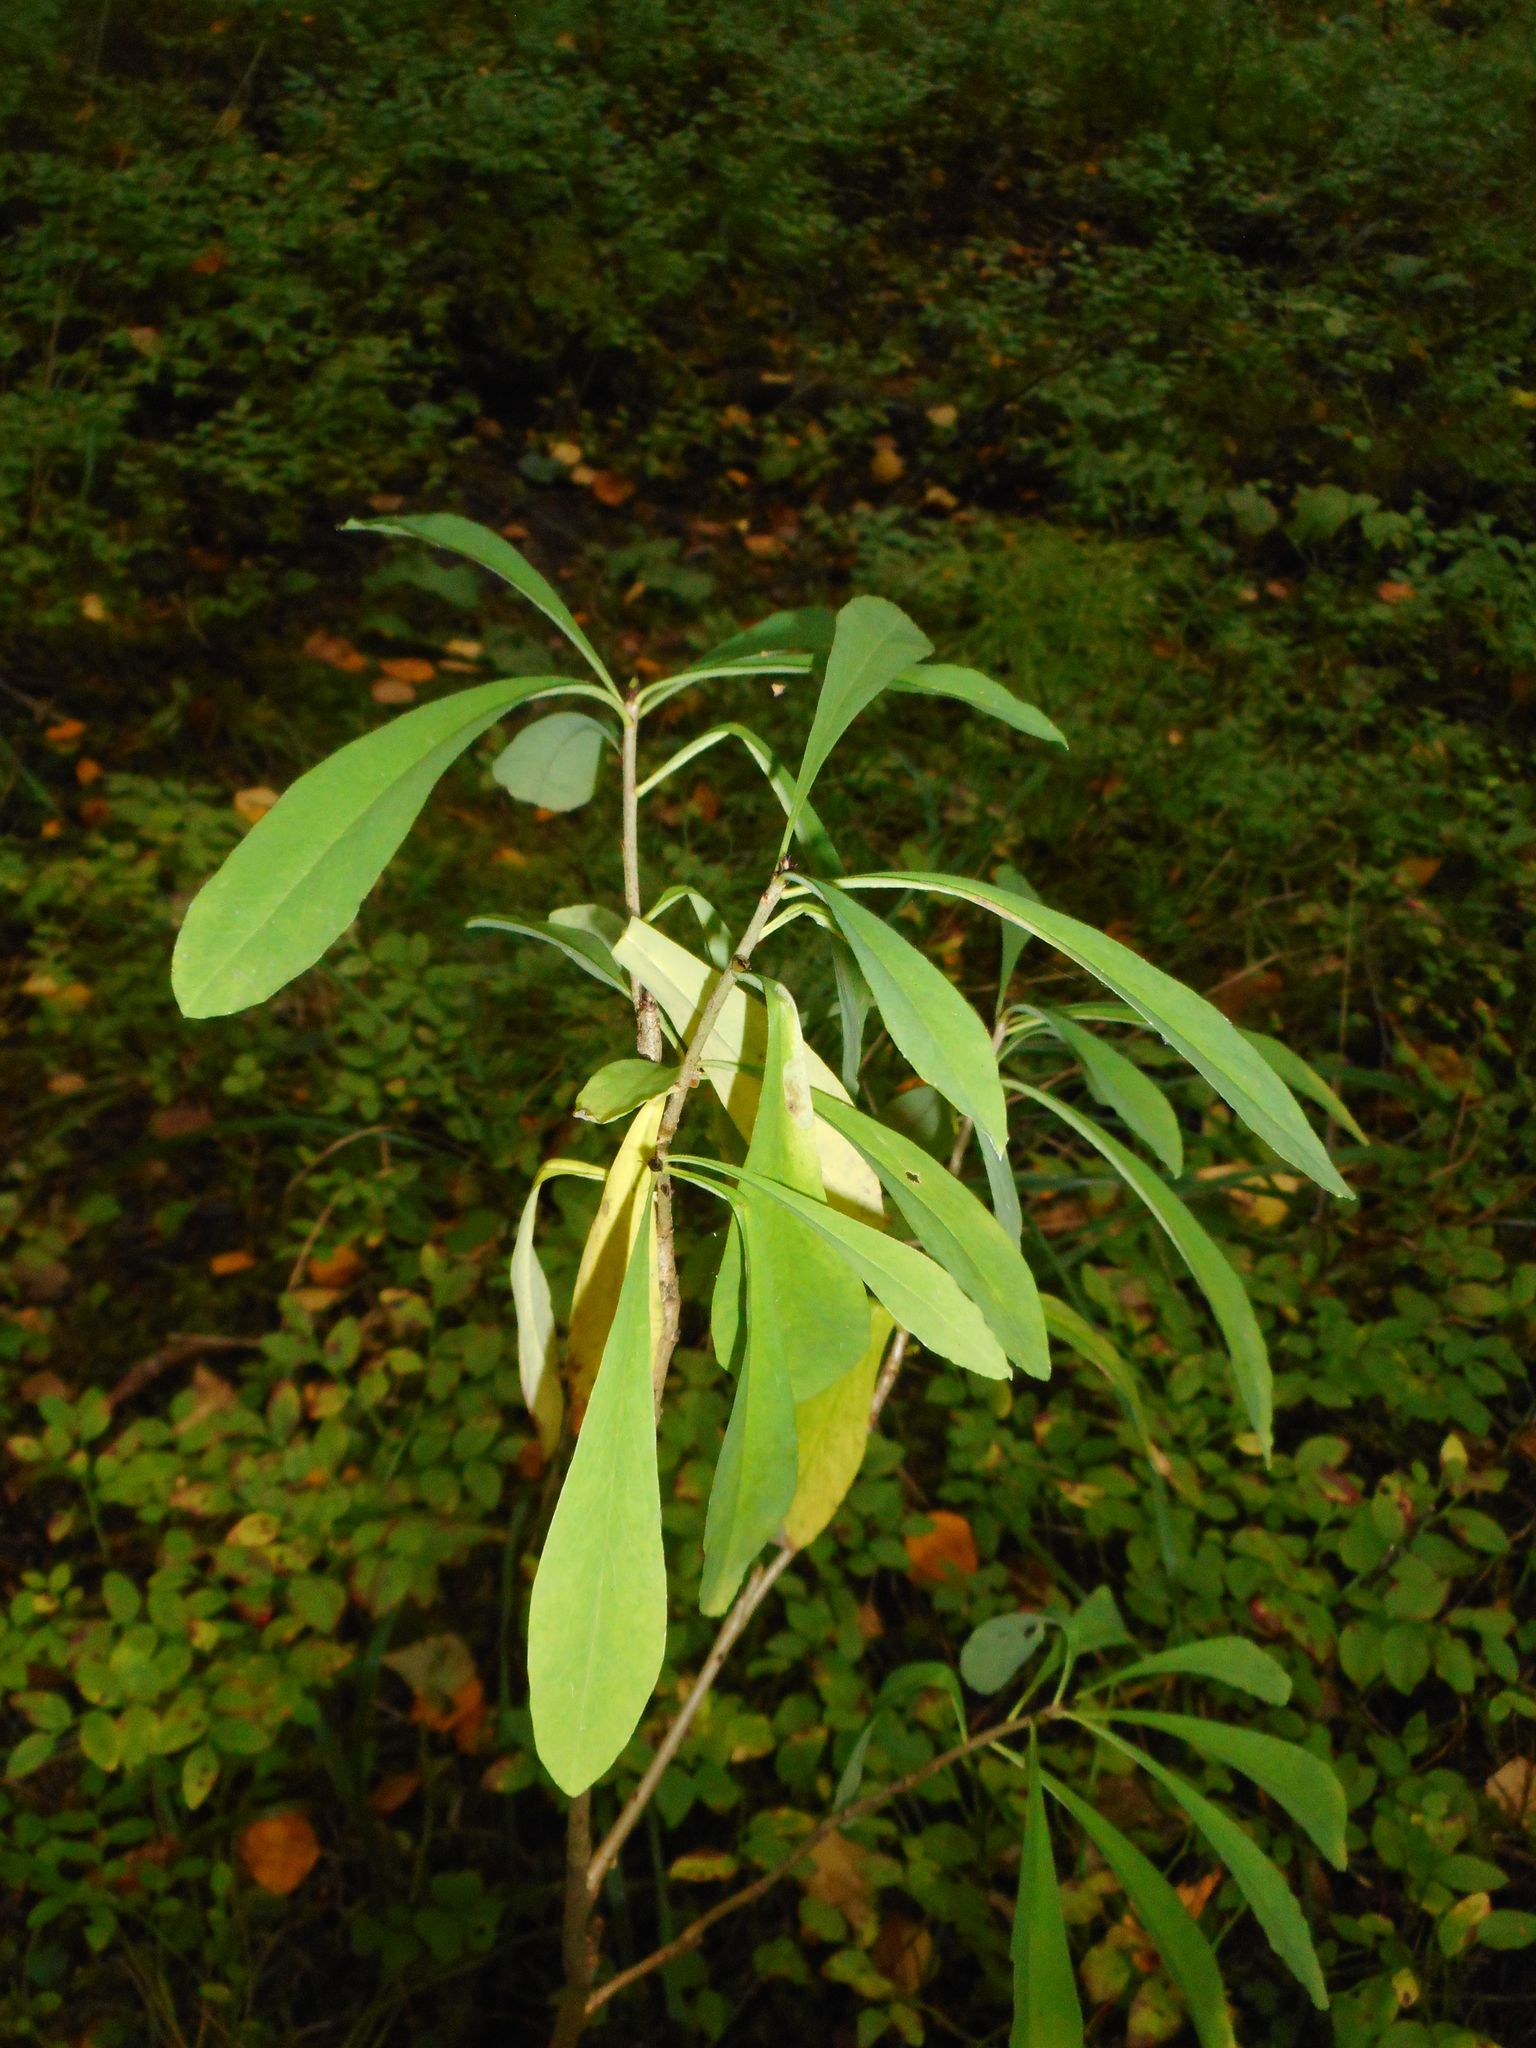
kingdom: Plantae
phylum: Tracheophyta
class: Magnoliopsida
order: Malvales
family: Thymelaeaceae
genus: Daphne
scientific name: Daphne mezereum
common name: Mezereon
